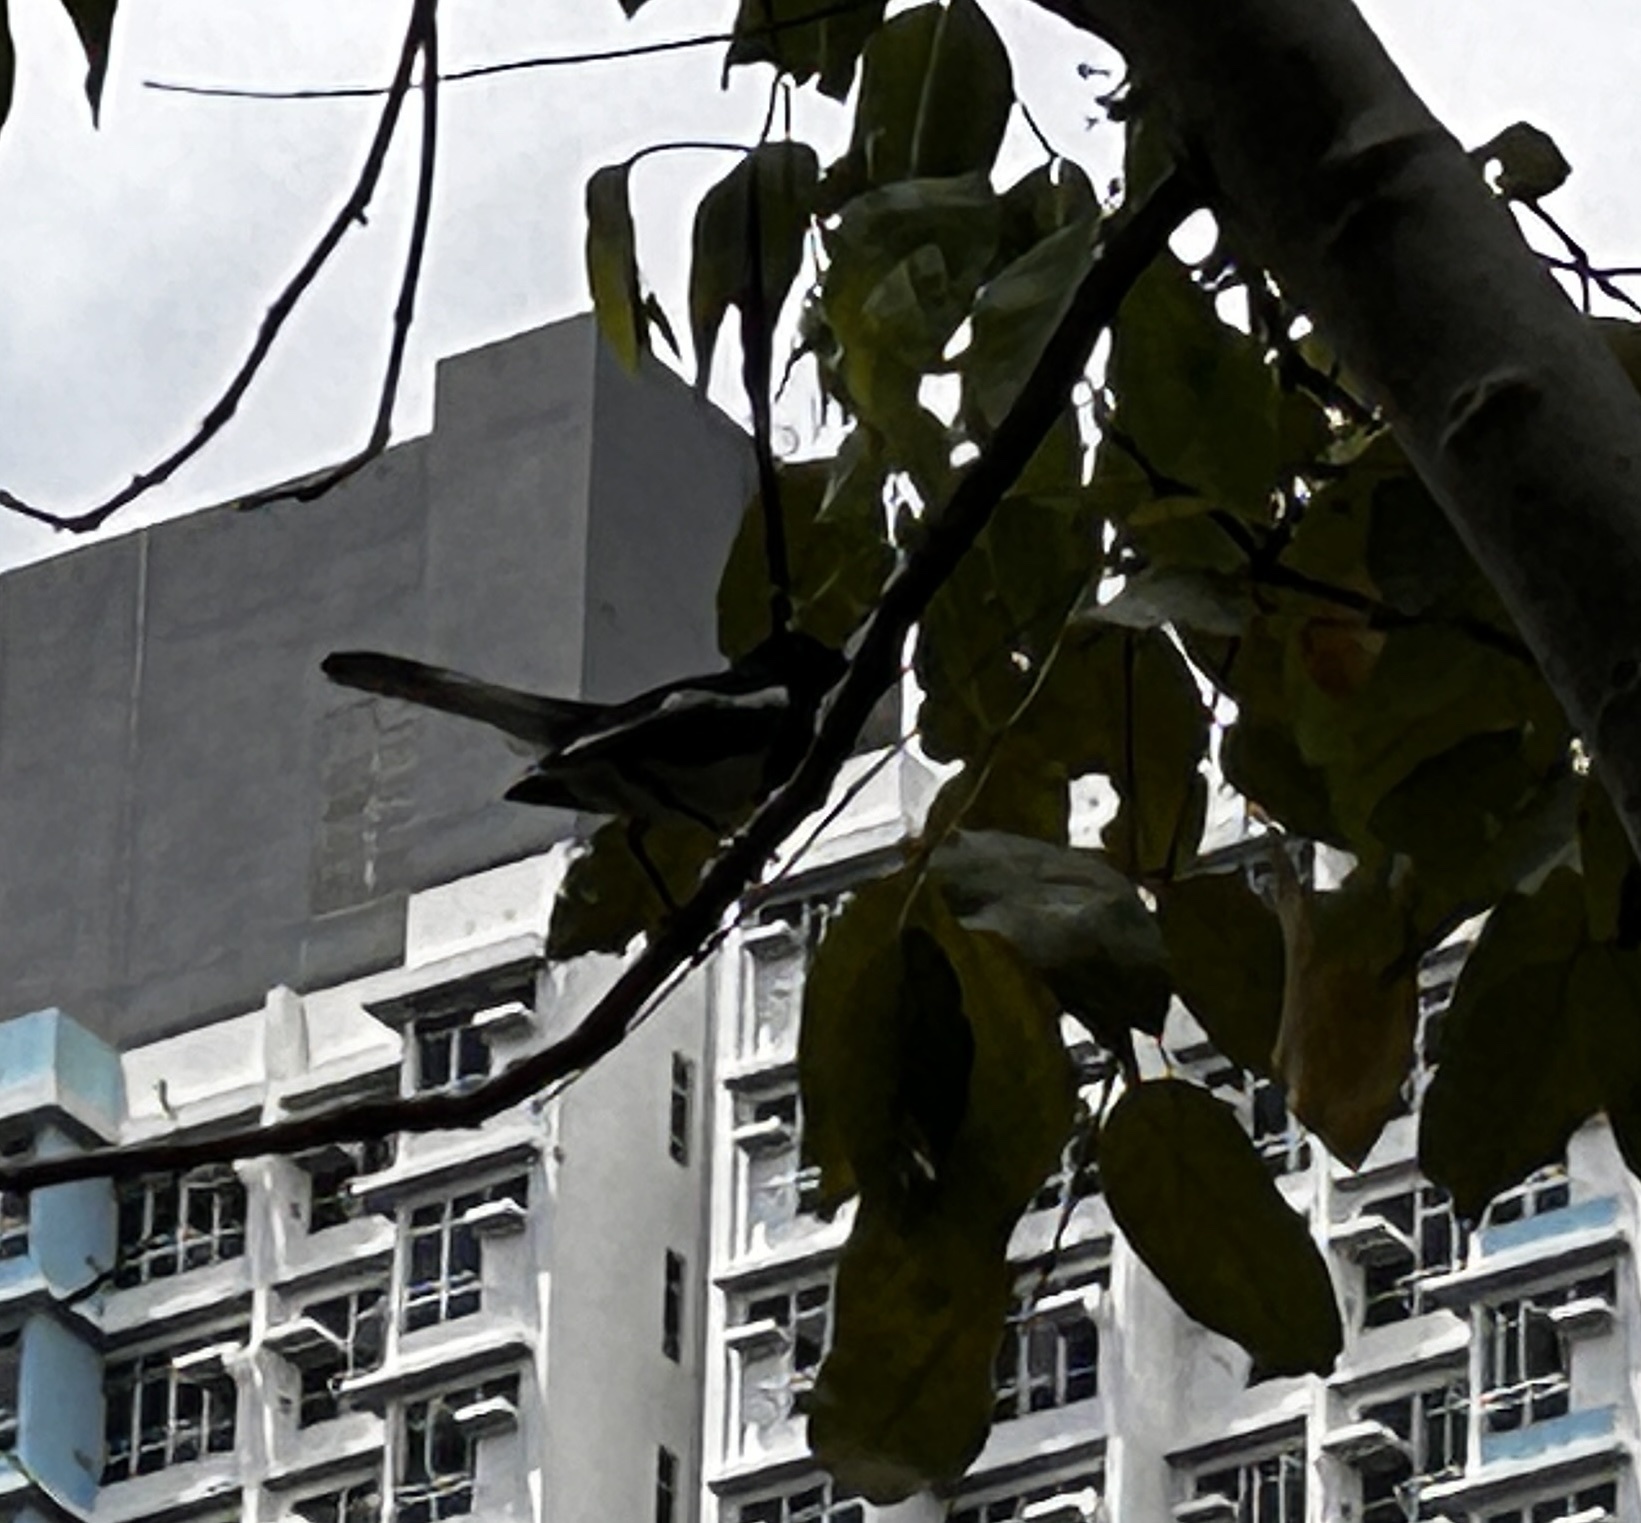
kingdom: Animalia
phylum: Chordata
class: Aves
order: Passeriformes
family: Muscicapidae
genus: Copsychus
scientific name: Copsychus saularis
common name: Oriental magpie-robin
